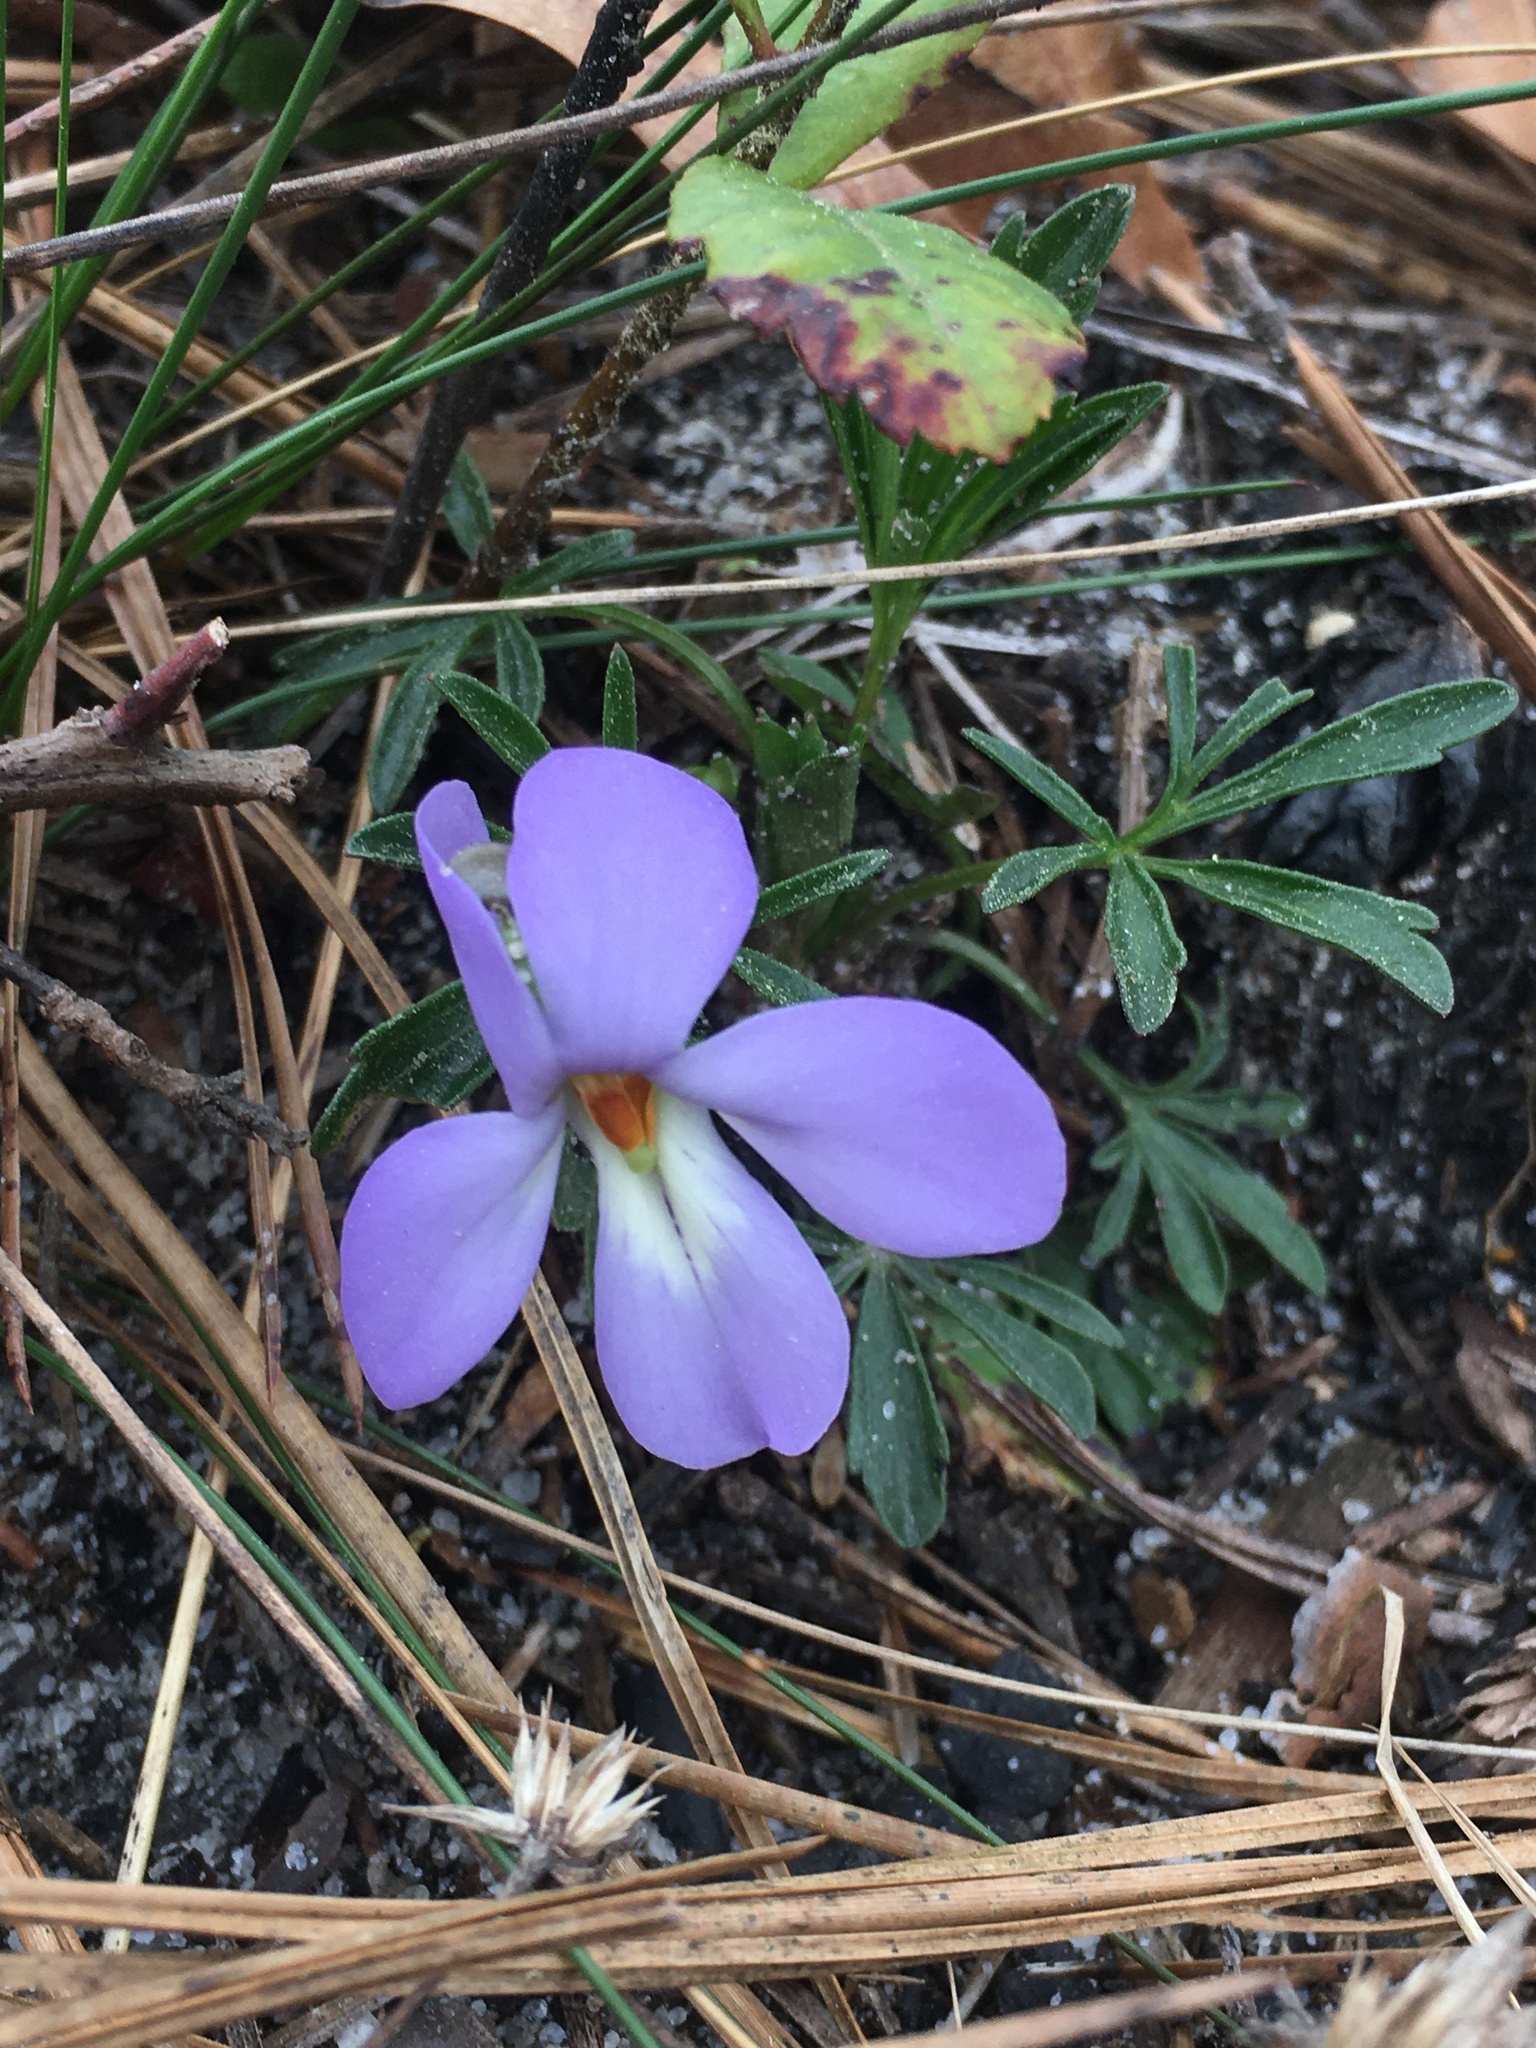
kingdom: Plantae
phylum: Tracheophyta
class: Magnoliopsida
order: Malpighiales
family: Violaceae
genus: Viola
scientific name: Viola pedata
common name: Pansy violet
